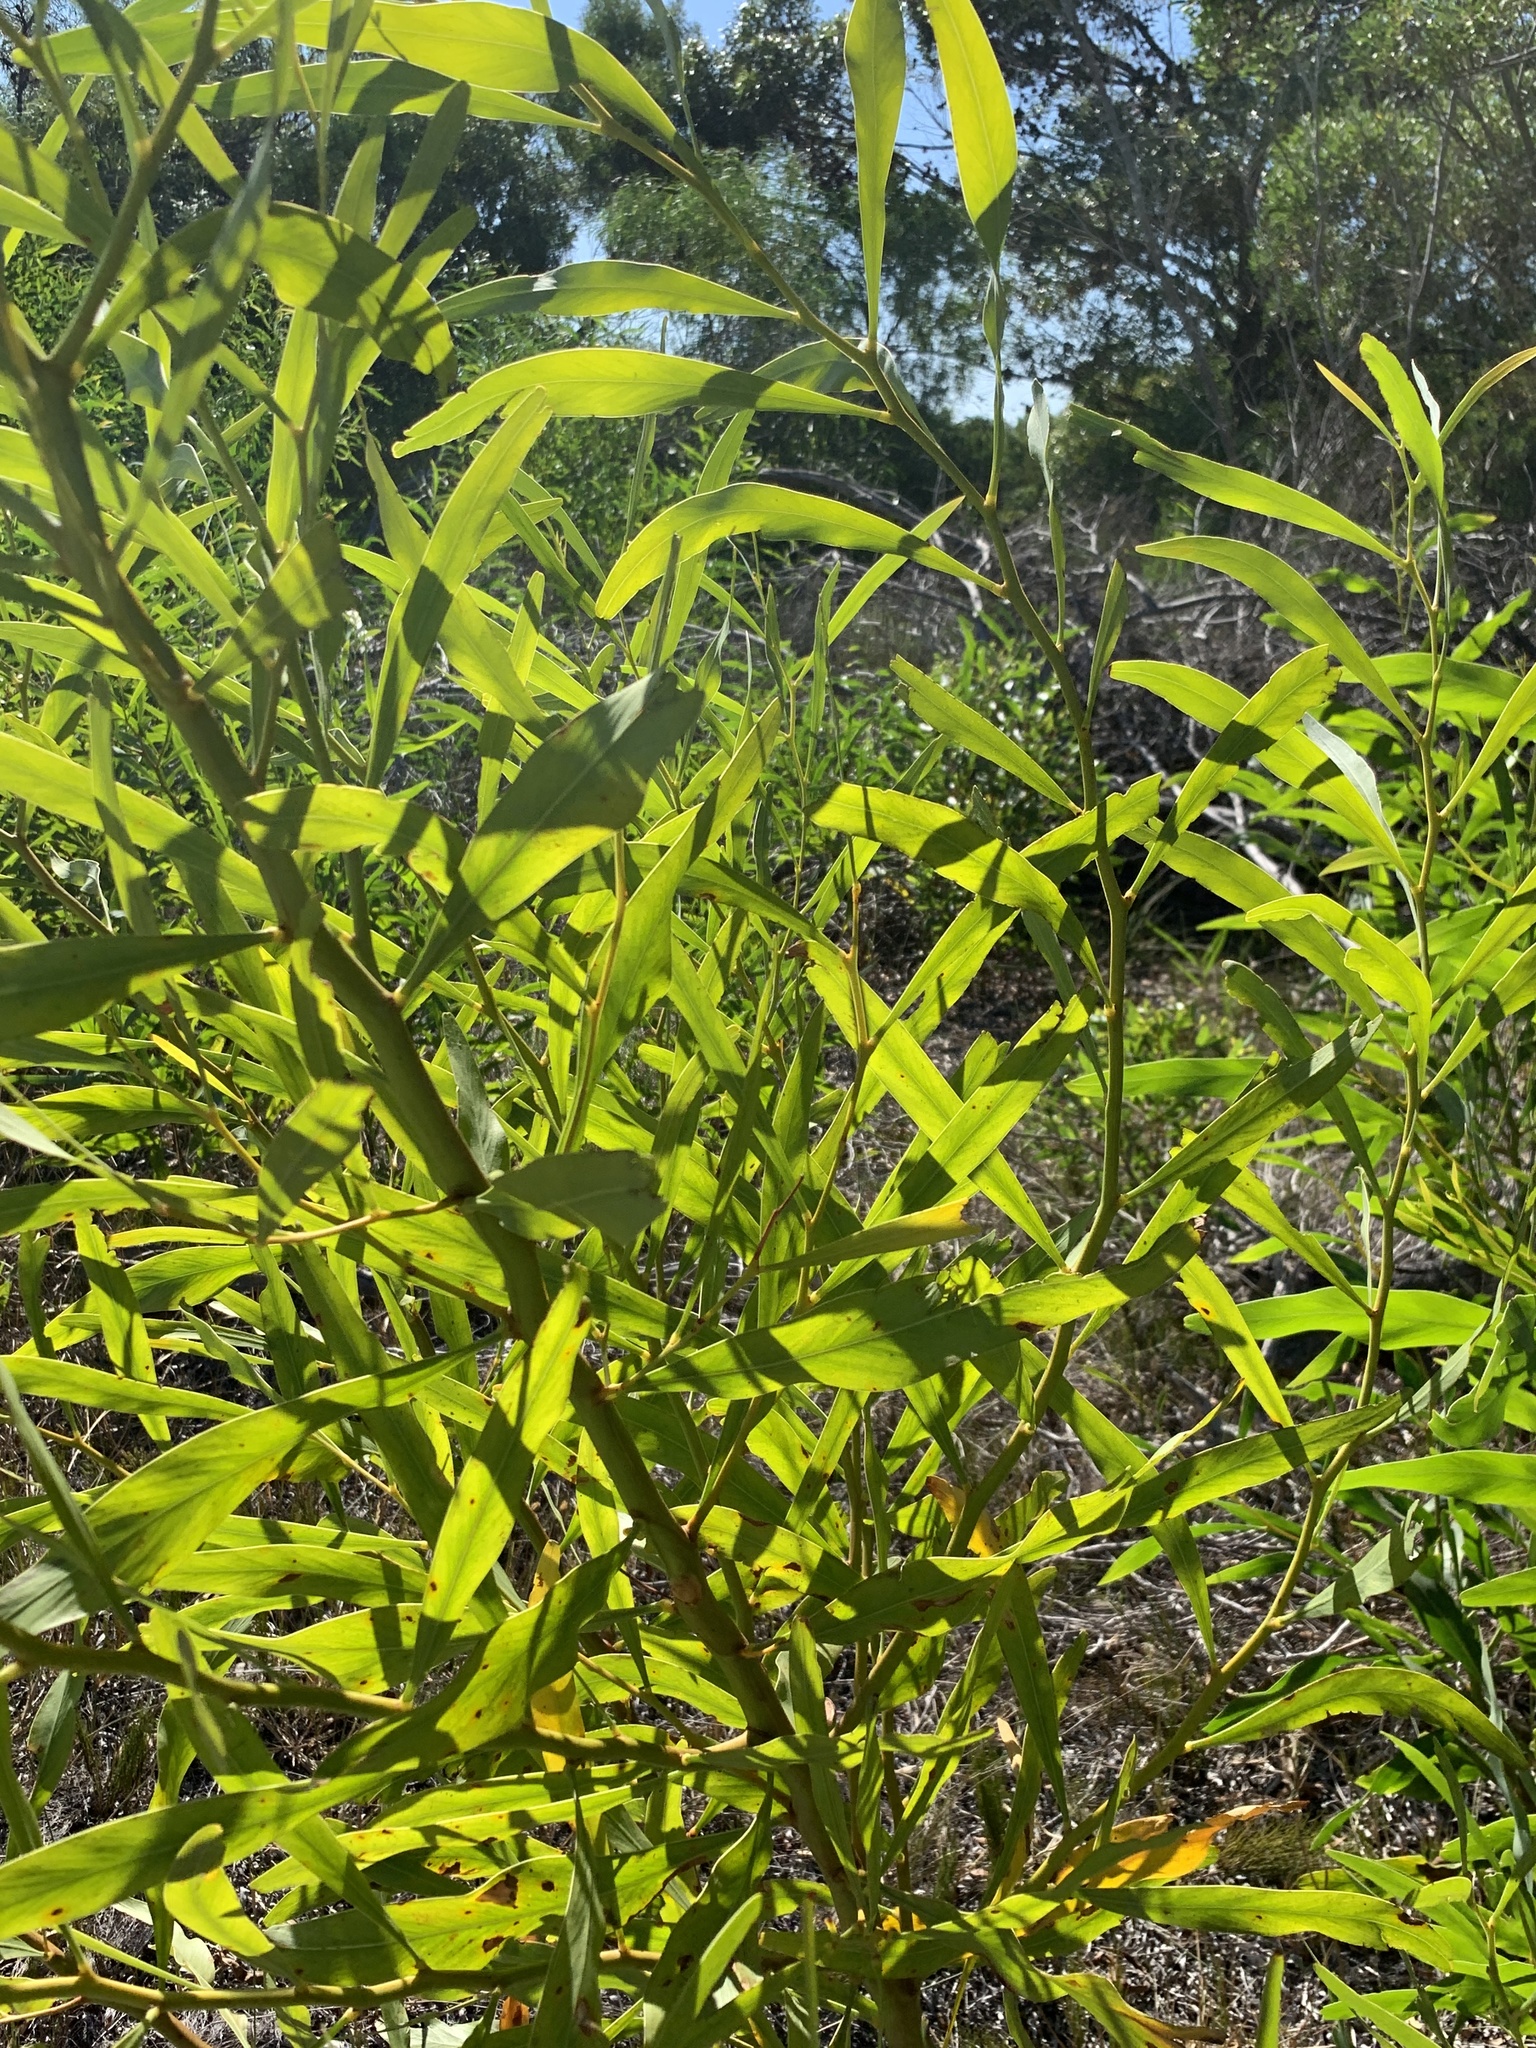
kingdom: Plantae
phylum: Tracheophyta
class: Magnoliopsida
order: Fabales
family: Fabaceae
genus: Acacia
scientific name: Acacia saligna
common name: Orange wattle
